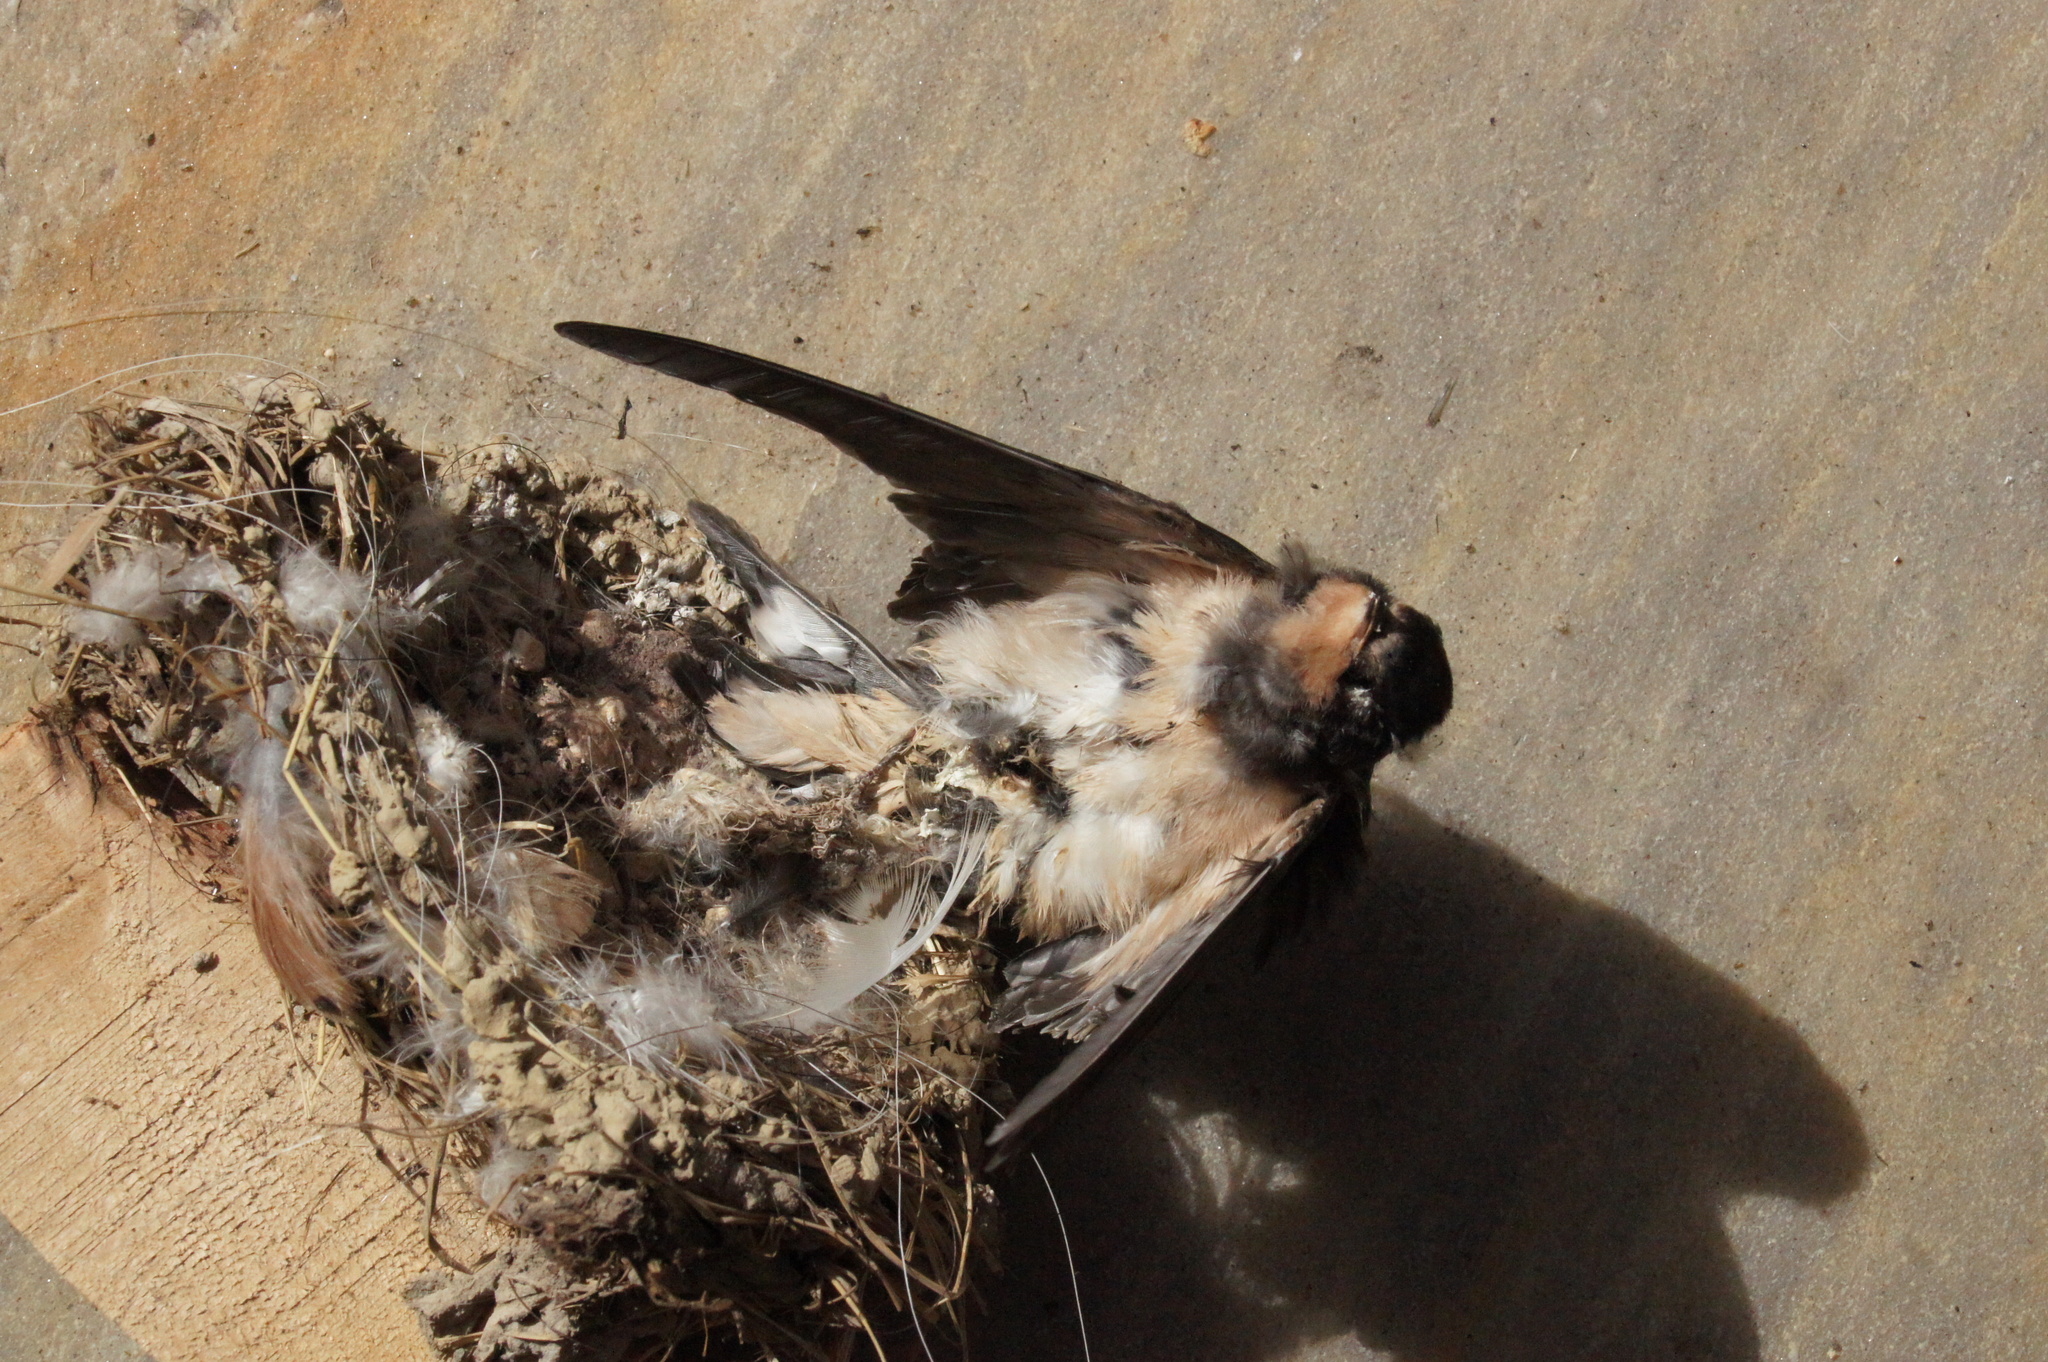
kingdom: Animalia
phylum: Chordata
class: Aves
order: Passeriformes
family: Hirundinidae
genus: Hirundo
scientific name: Hirundo rustica
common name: Barn swallow
